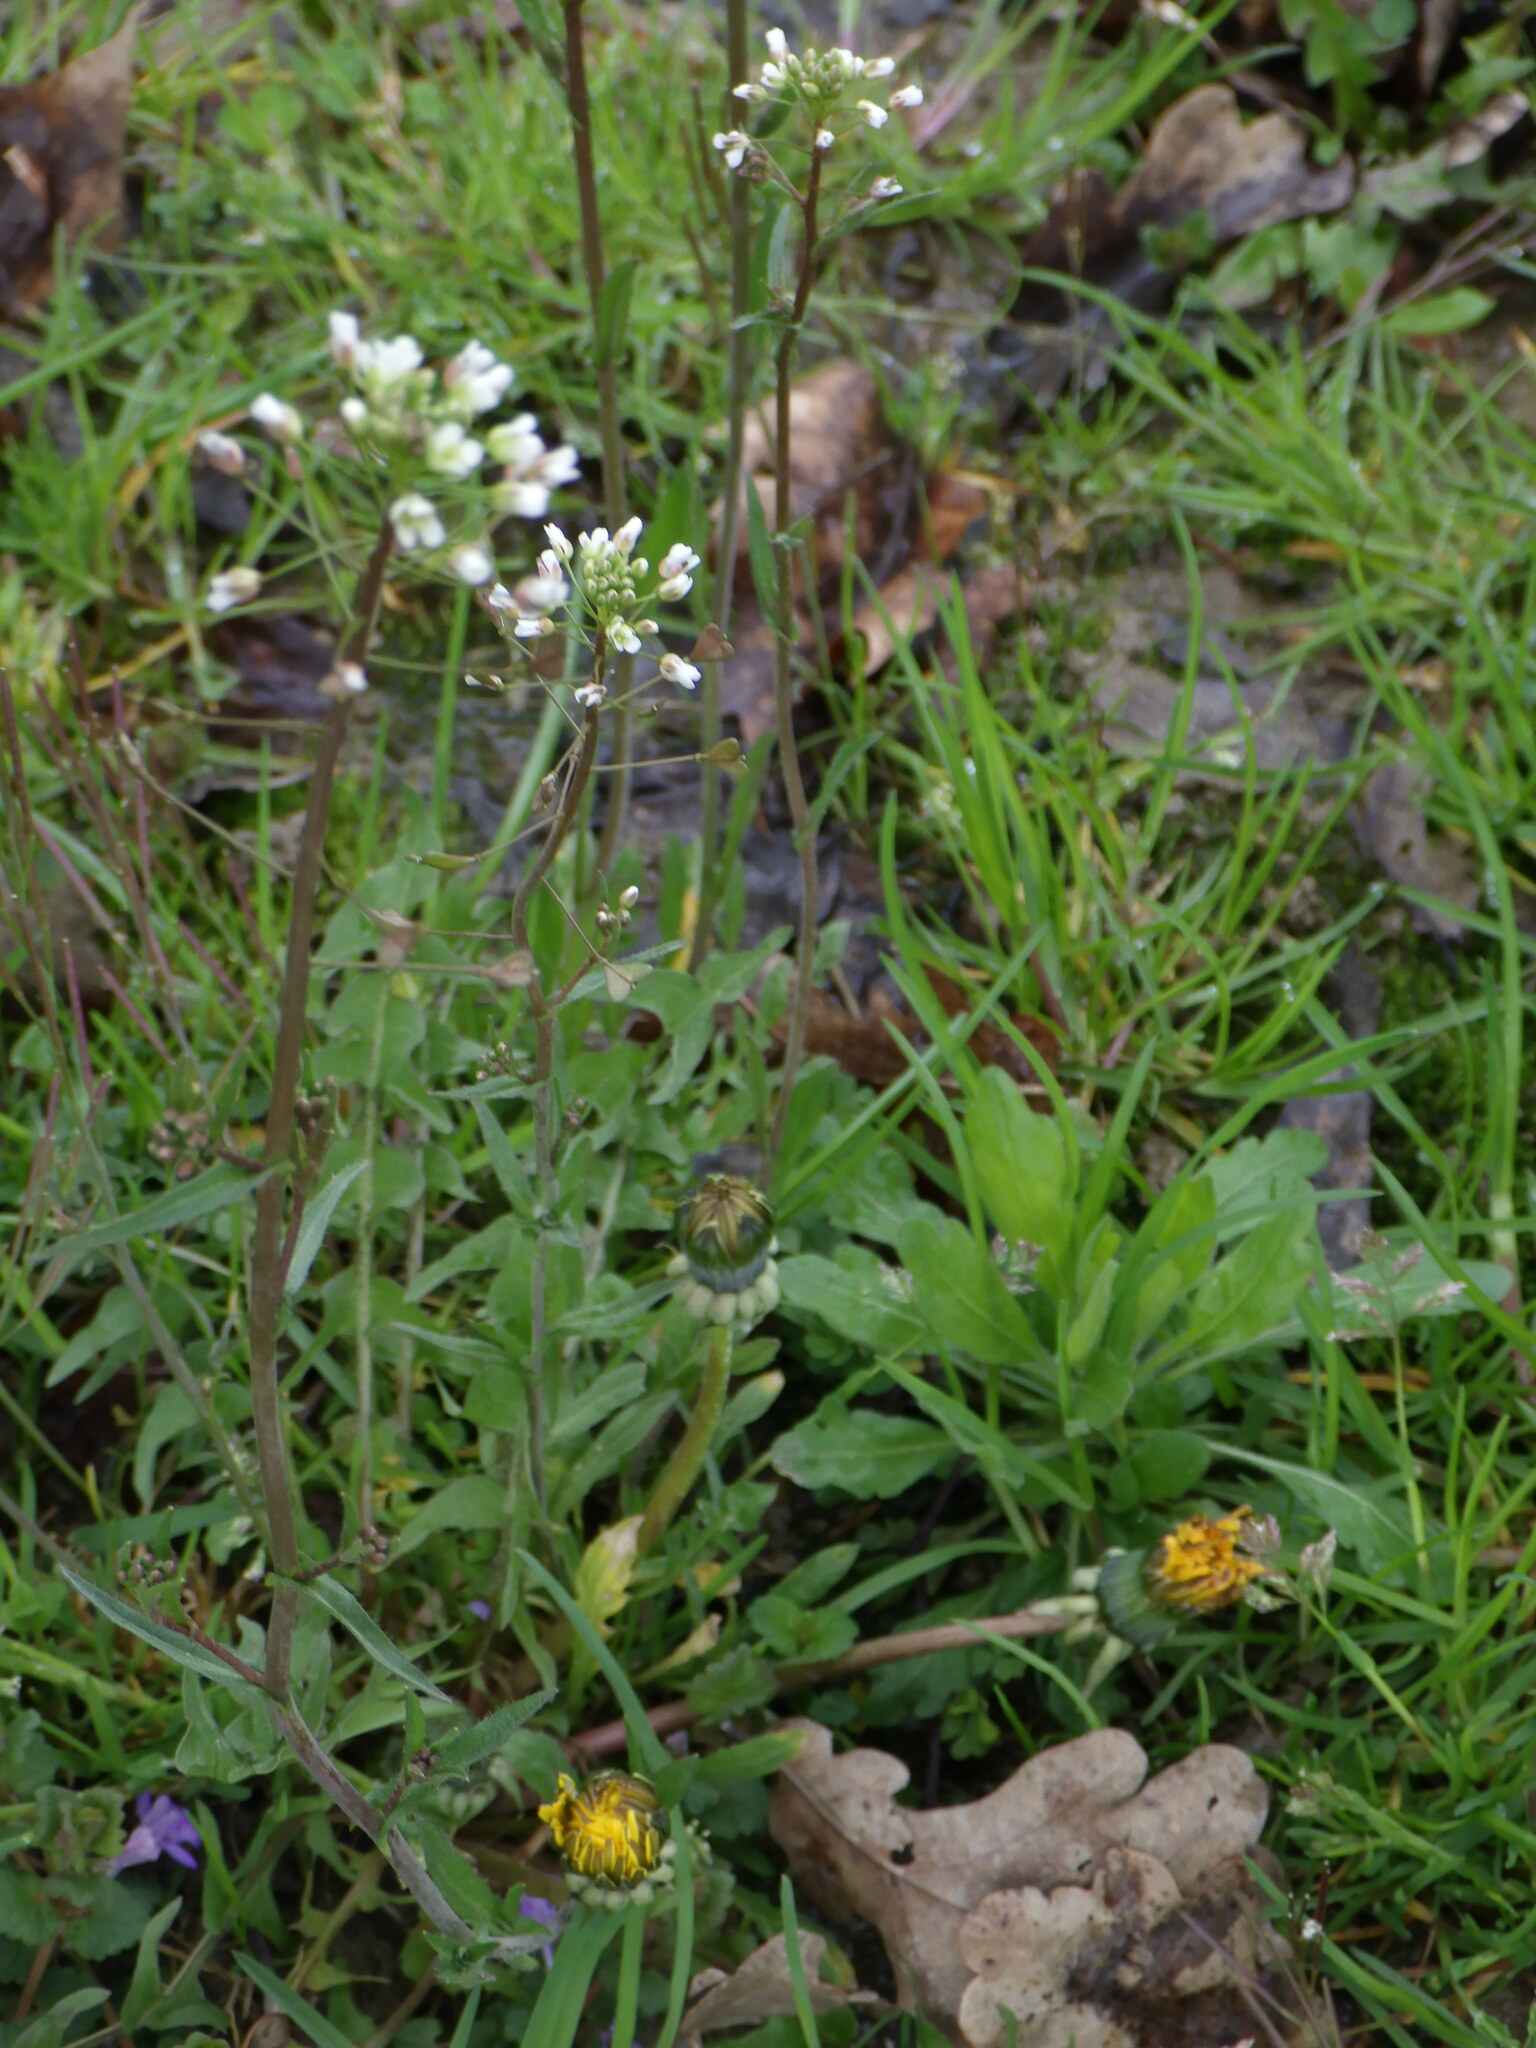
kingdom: Plantae
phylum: Tracheophyta
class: Magnoliopsida
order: Brassicales
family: Brassicaceae
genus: Capsella
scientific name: Capsella bursa-pastoris
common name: Shepherd's purse
